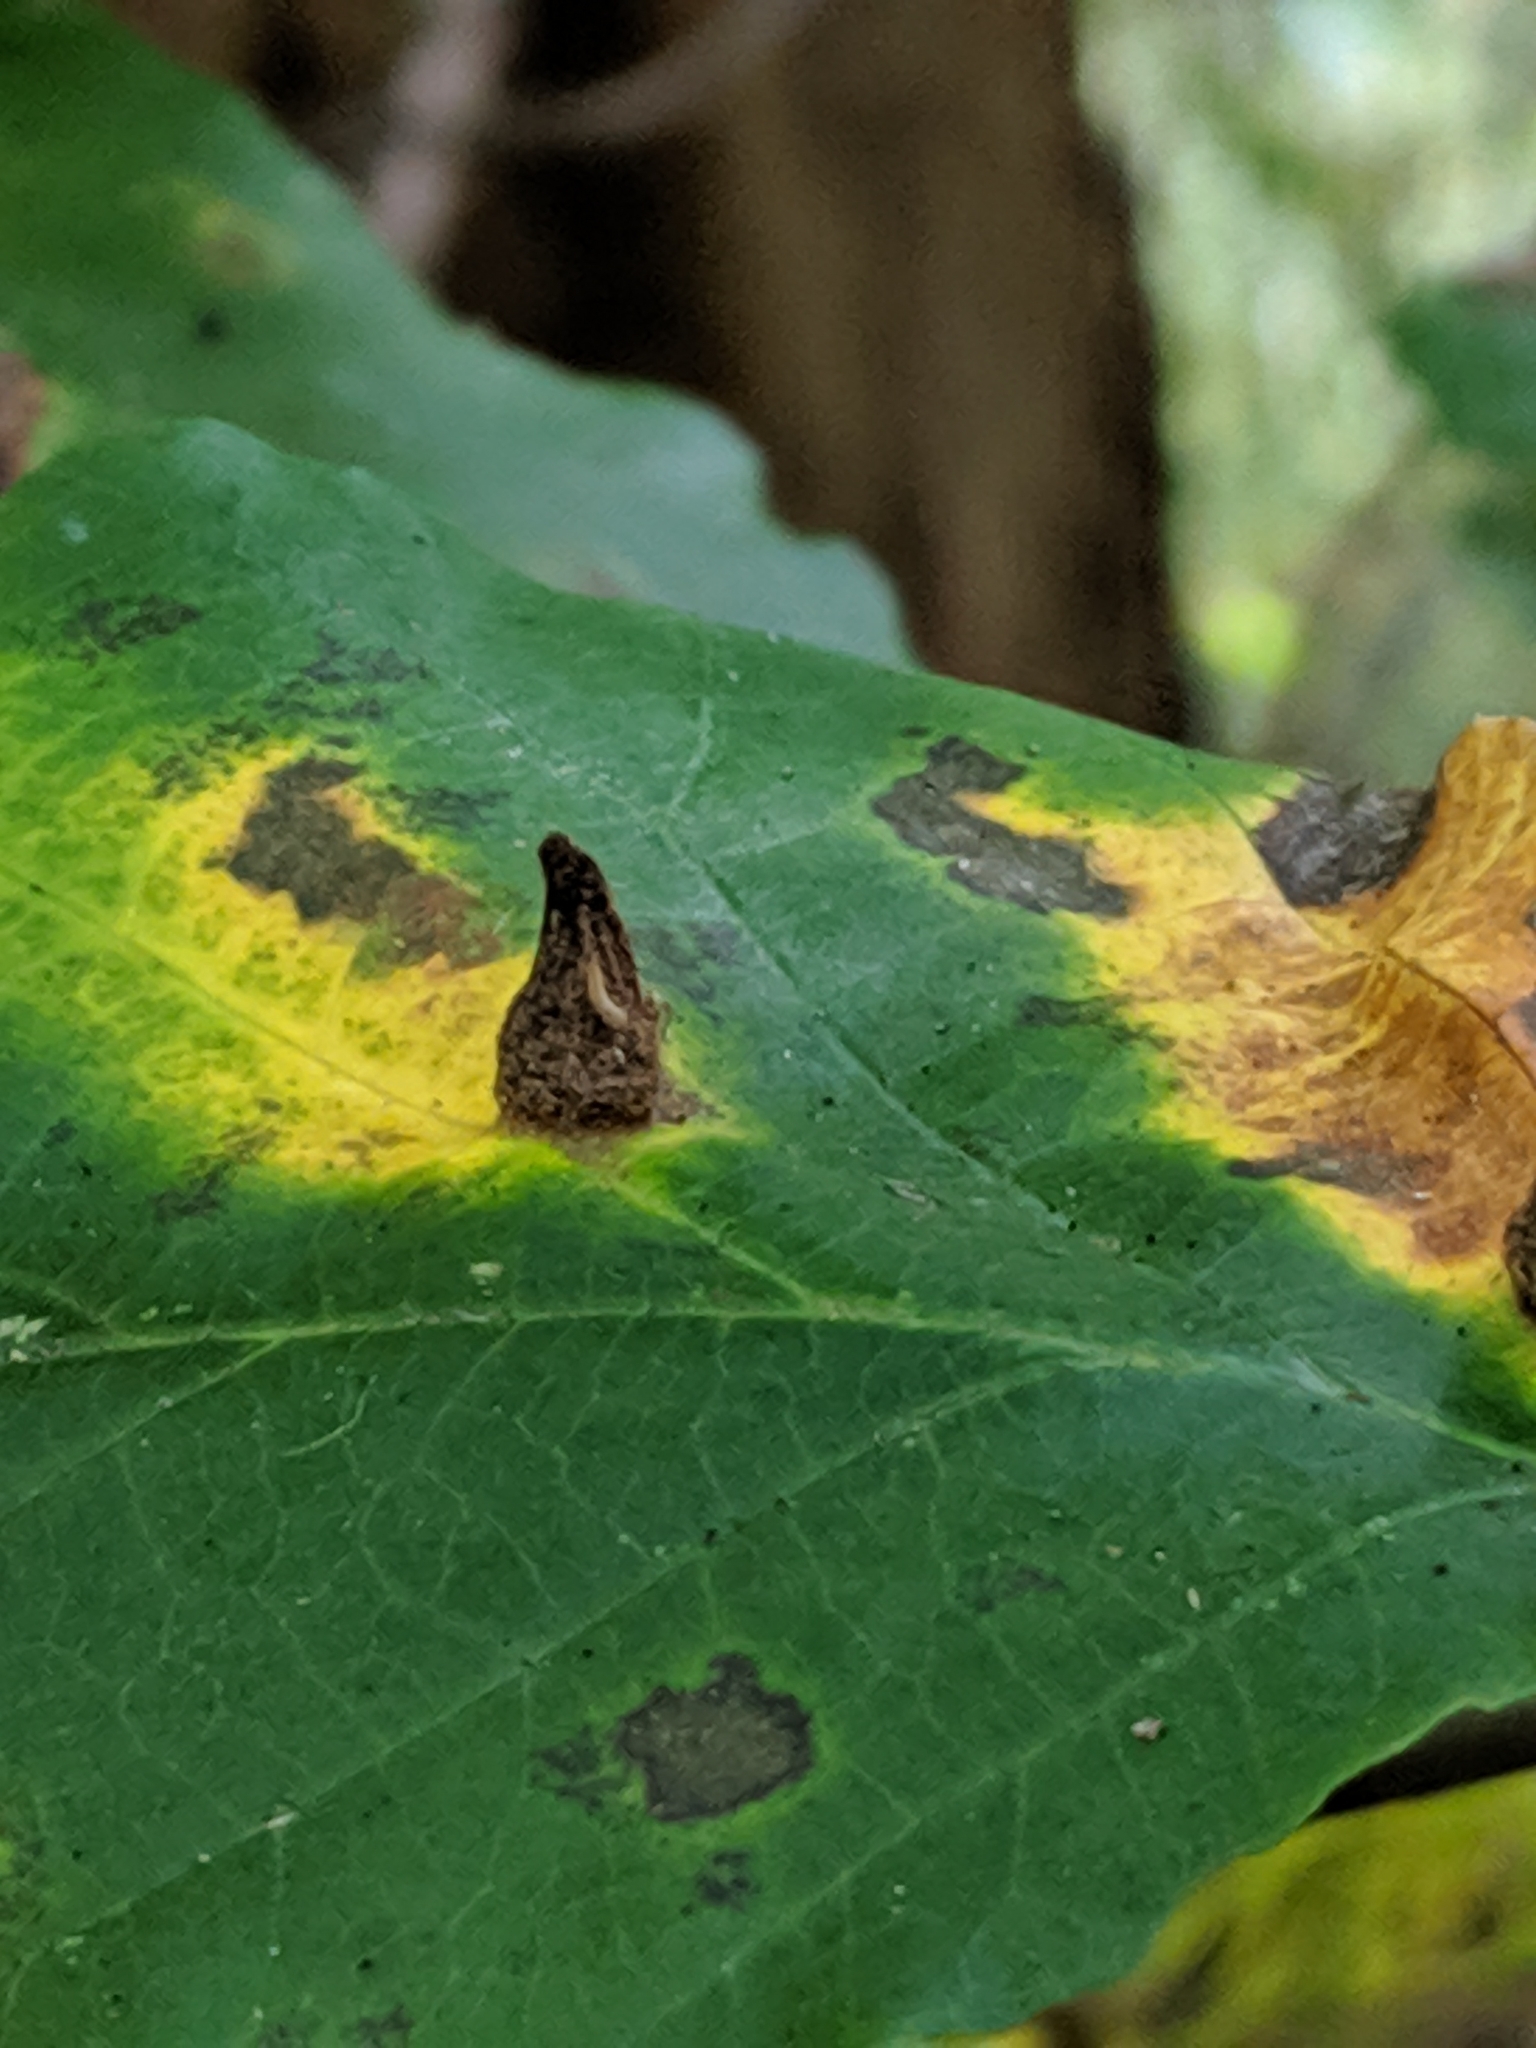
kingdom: Animalia
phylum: Arthropoda
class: Insecta
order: Hemiptera
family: Aphididae
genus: Hormaphis
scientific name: Hormaphis hamamelidis
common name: Witch-hazel cone gall aphid
